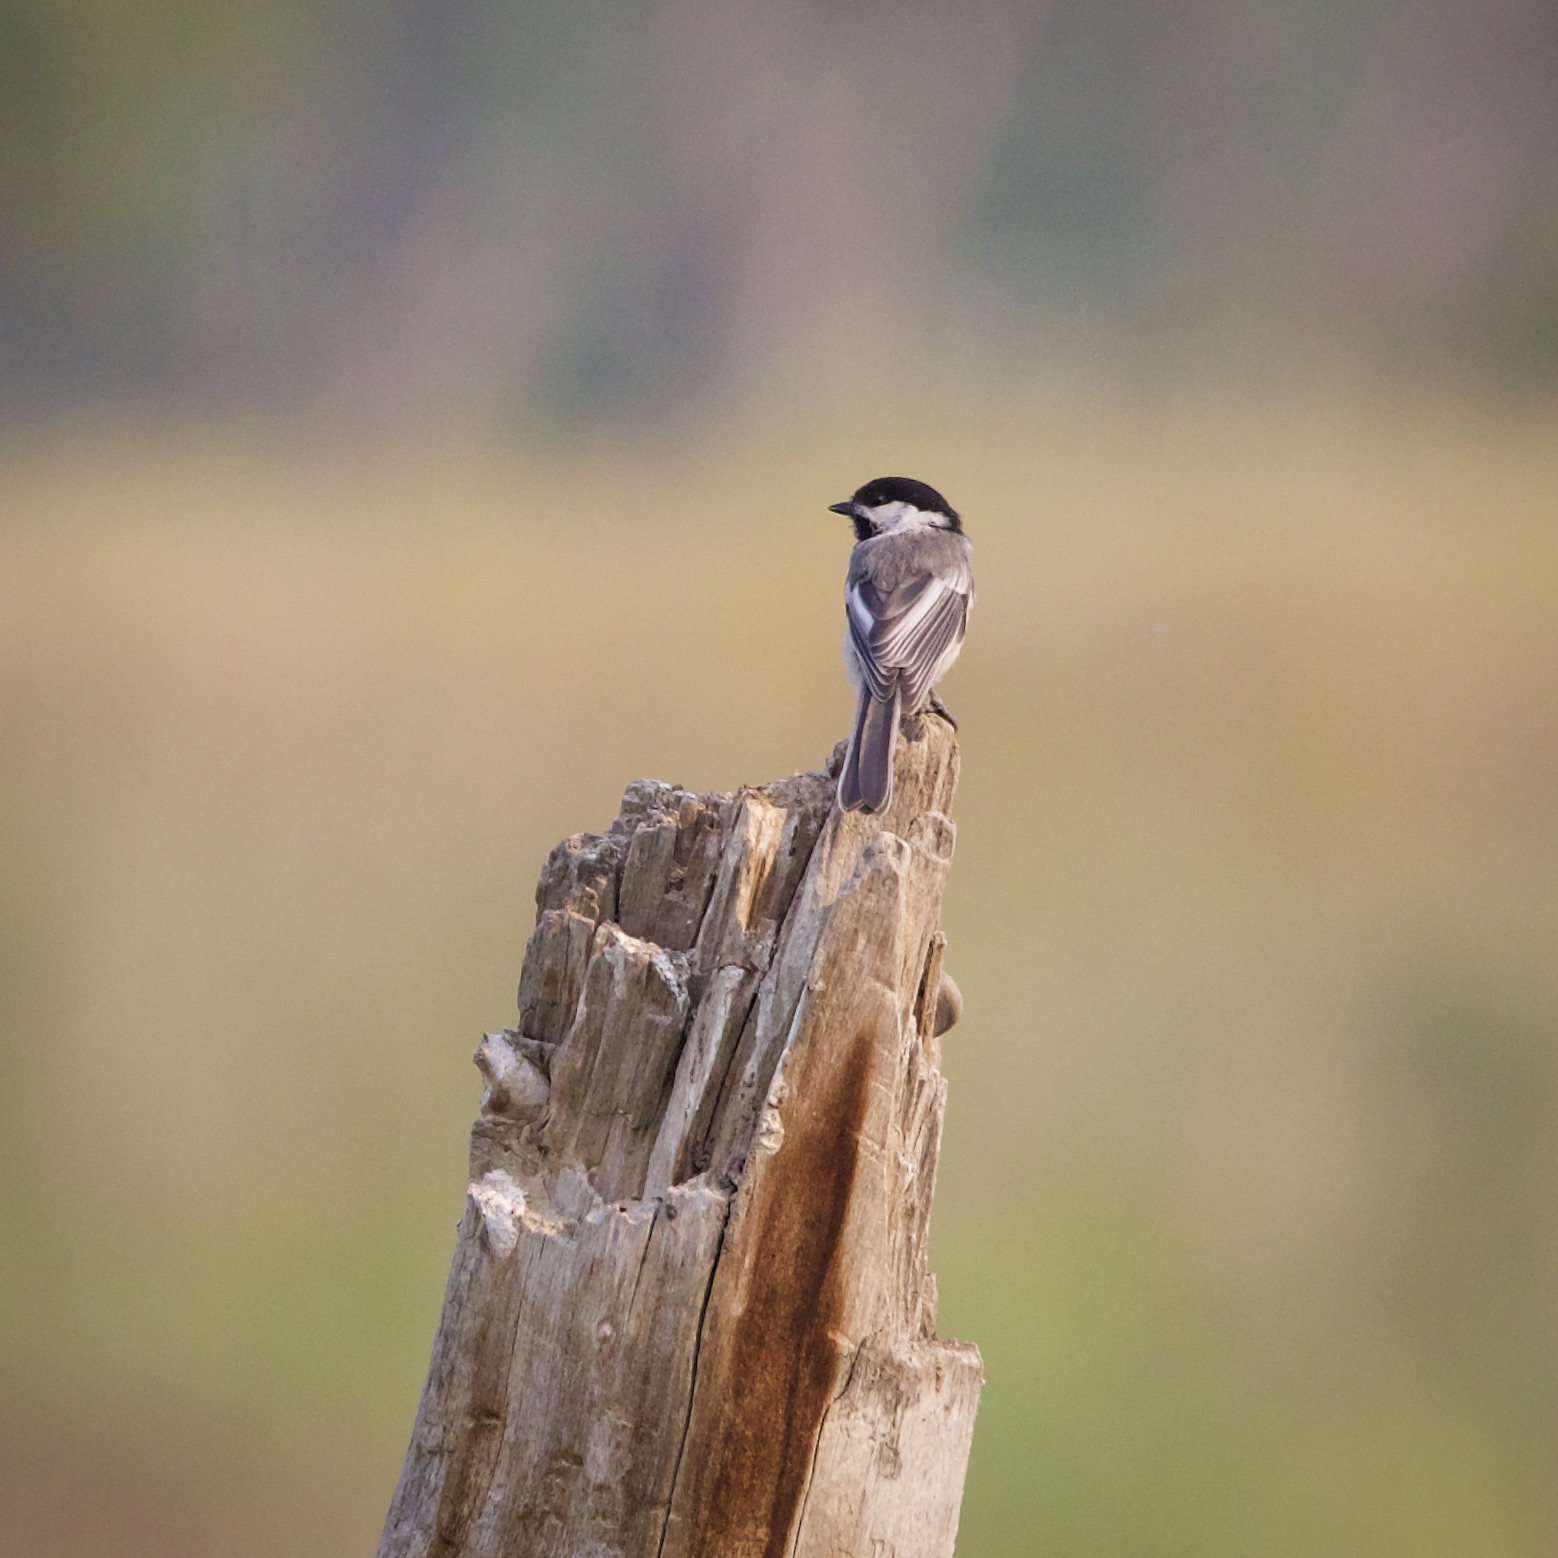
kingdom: Animalia
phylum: Chordata
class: Aves
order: Passeriformes
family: Paridae
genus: Poecile
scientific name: Poecile atricapillus
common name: Black-capped chickadee
